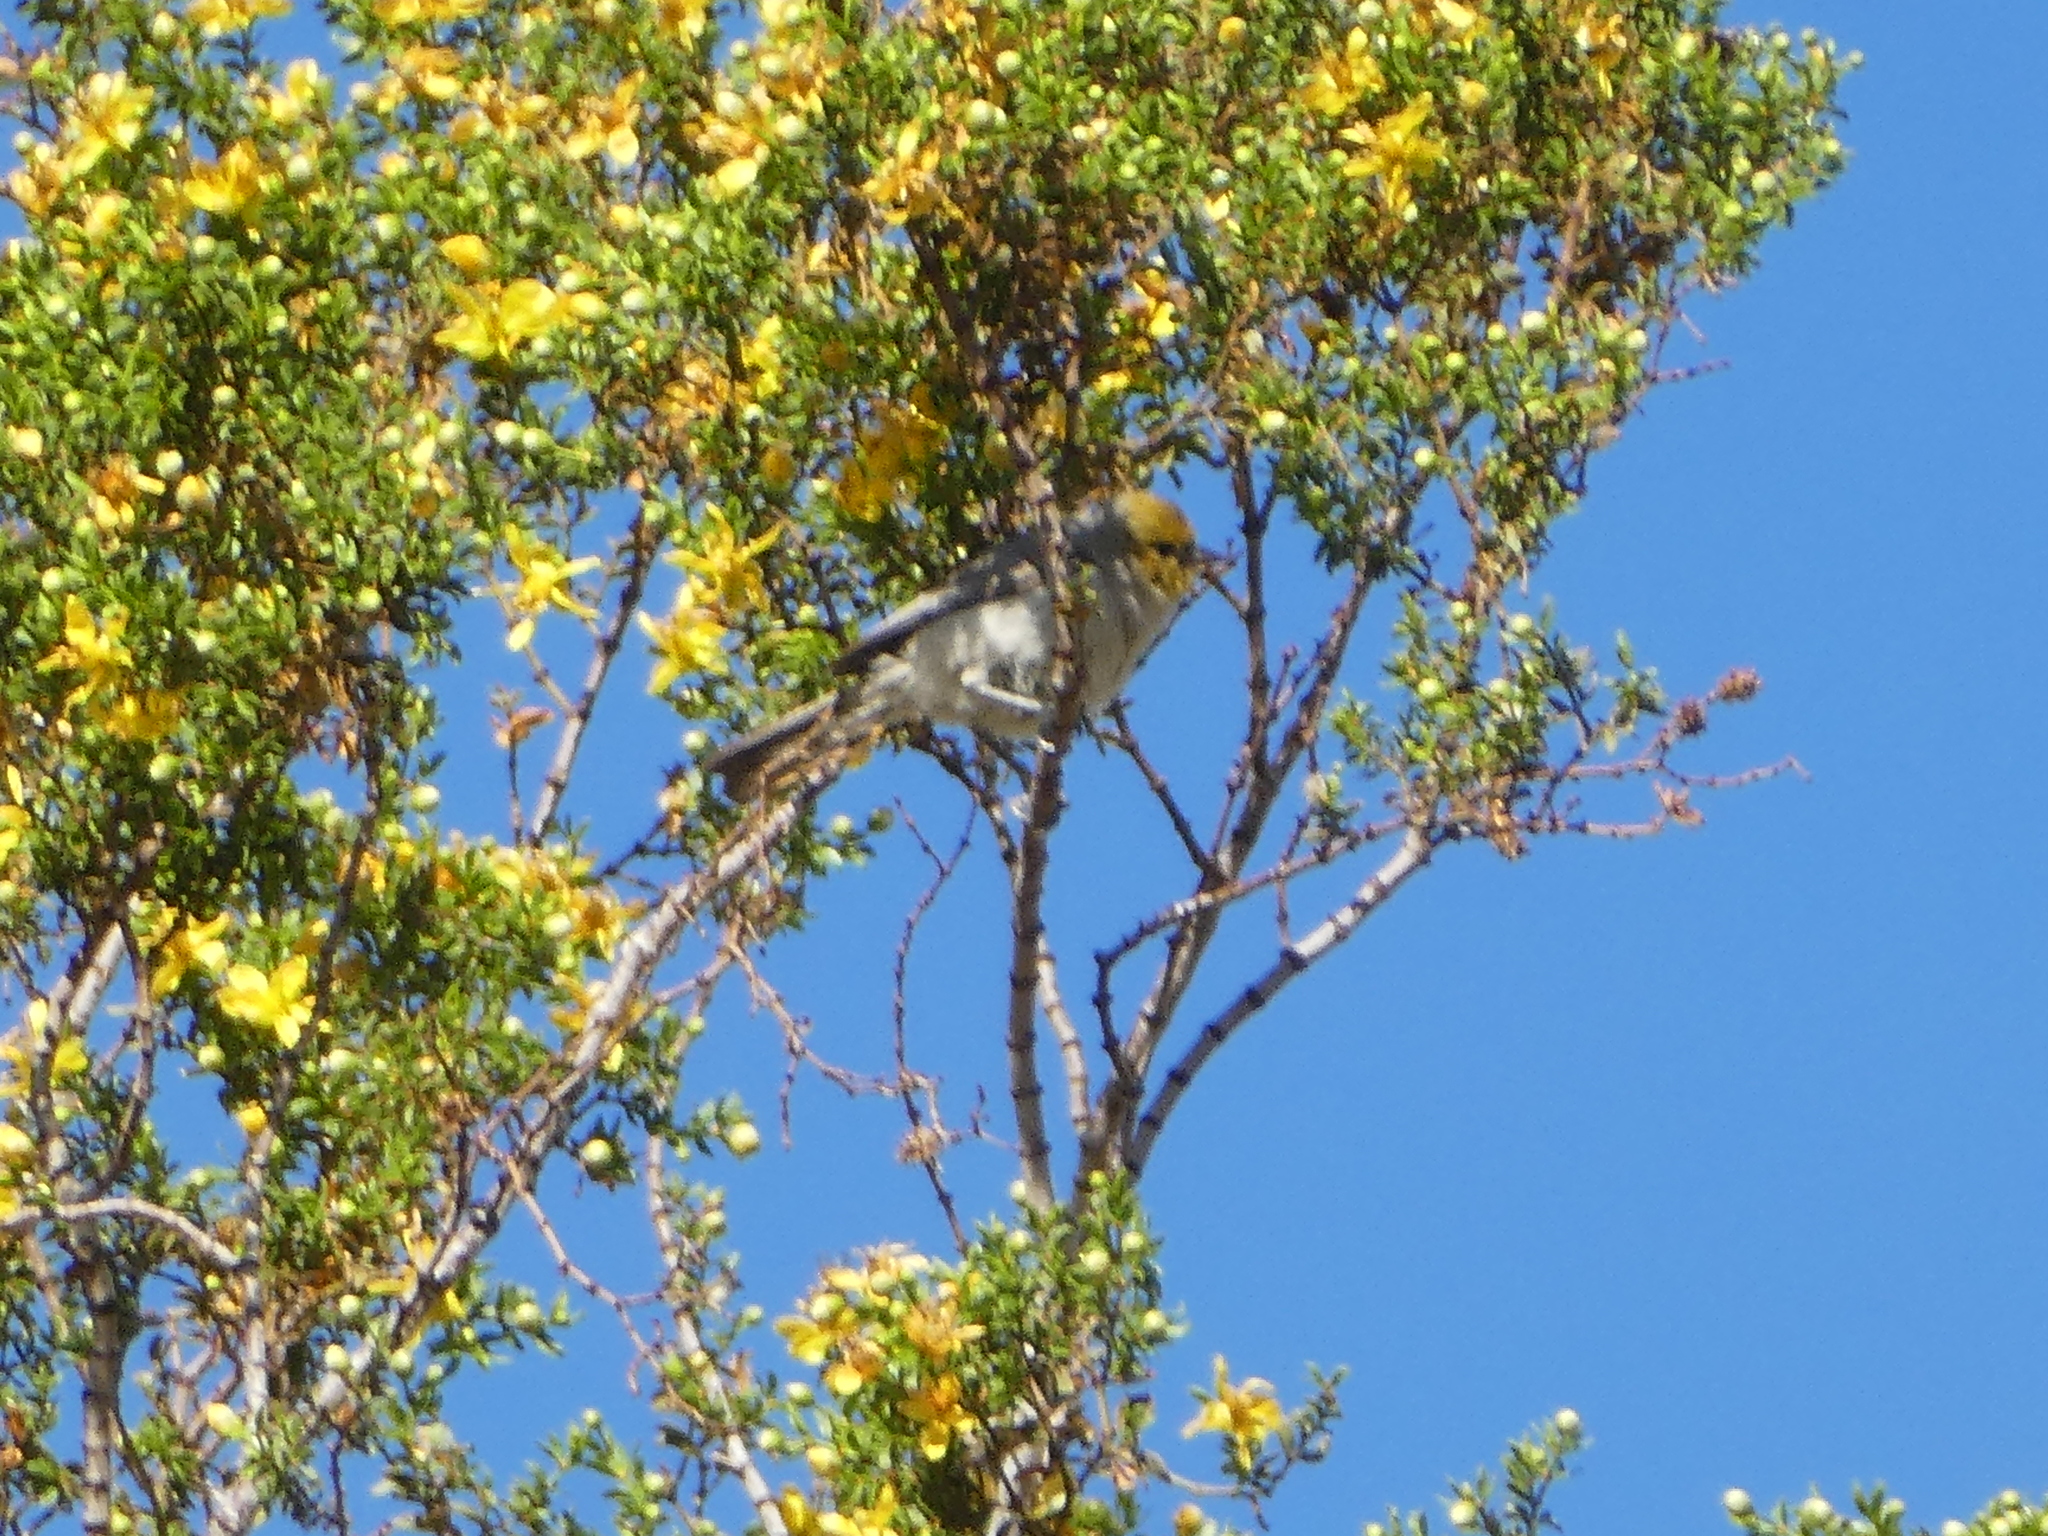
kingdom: Animalia
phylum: Chordata
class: Aves
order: Passeriformes
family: Remizidae
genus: Auriparus
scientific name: Auriparus flaviceps
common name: Verdin
